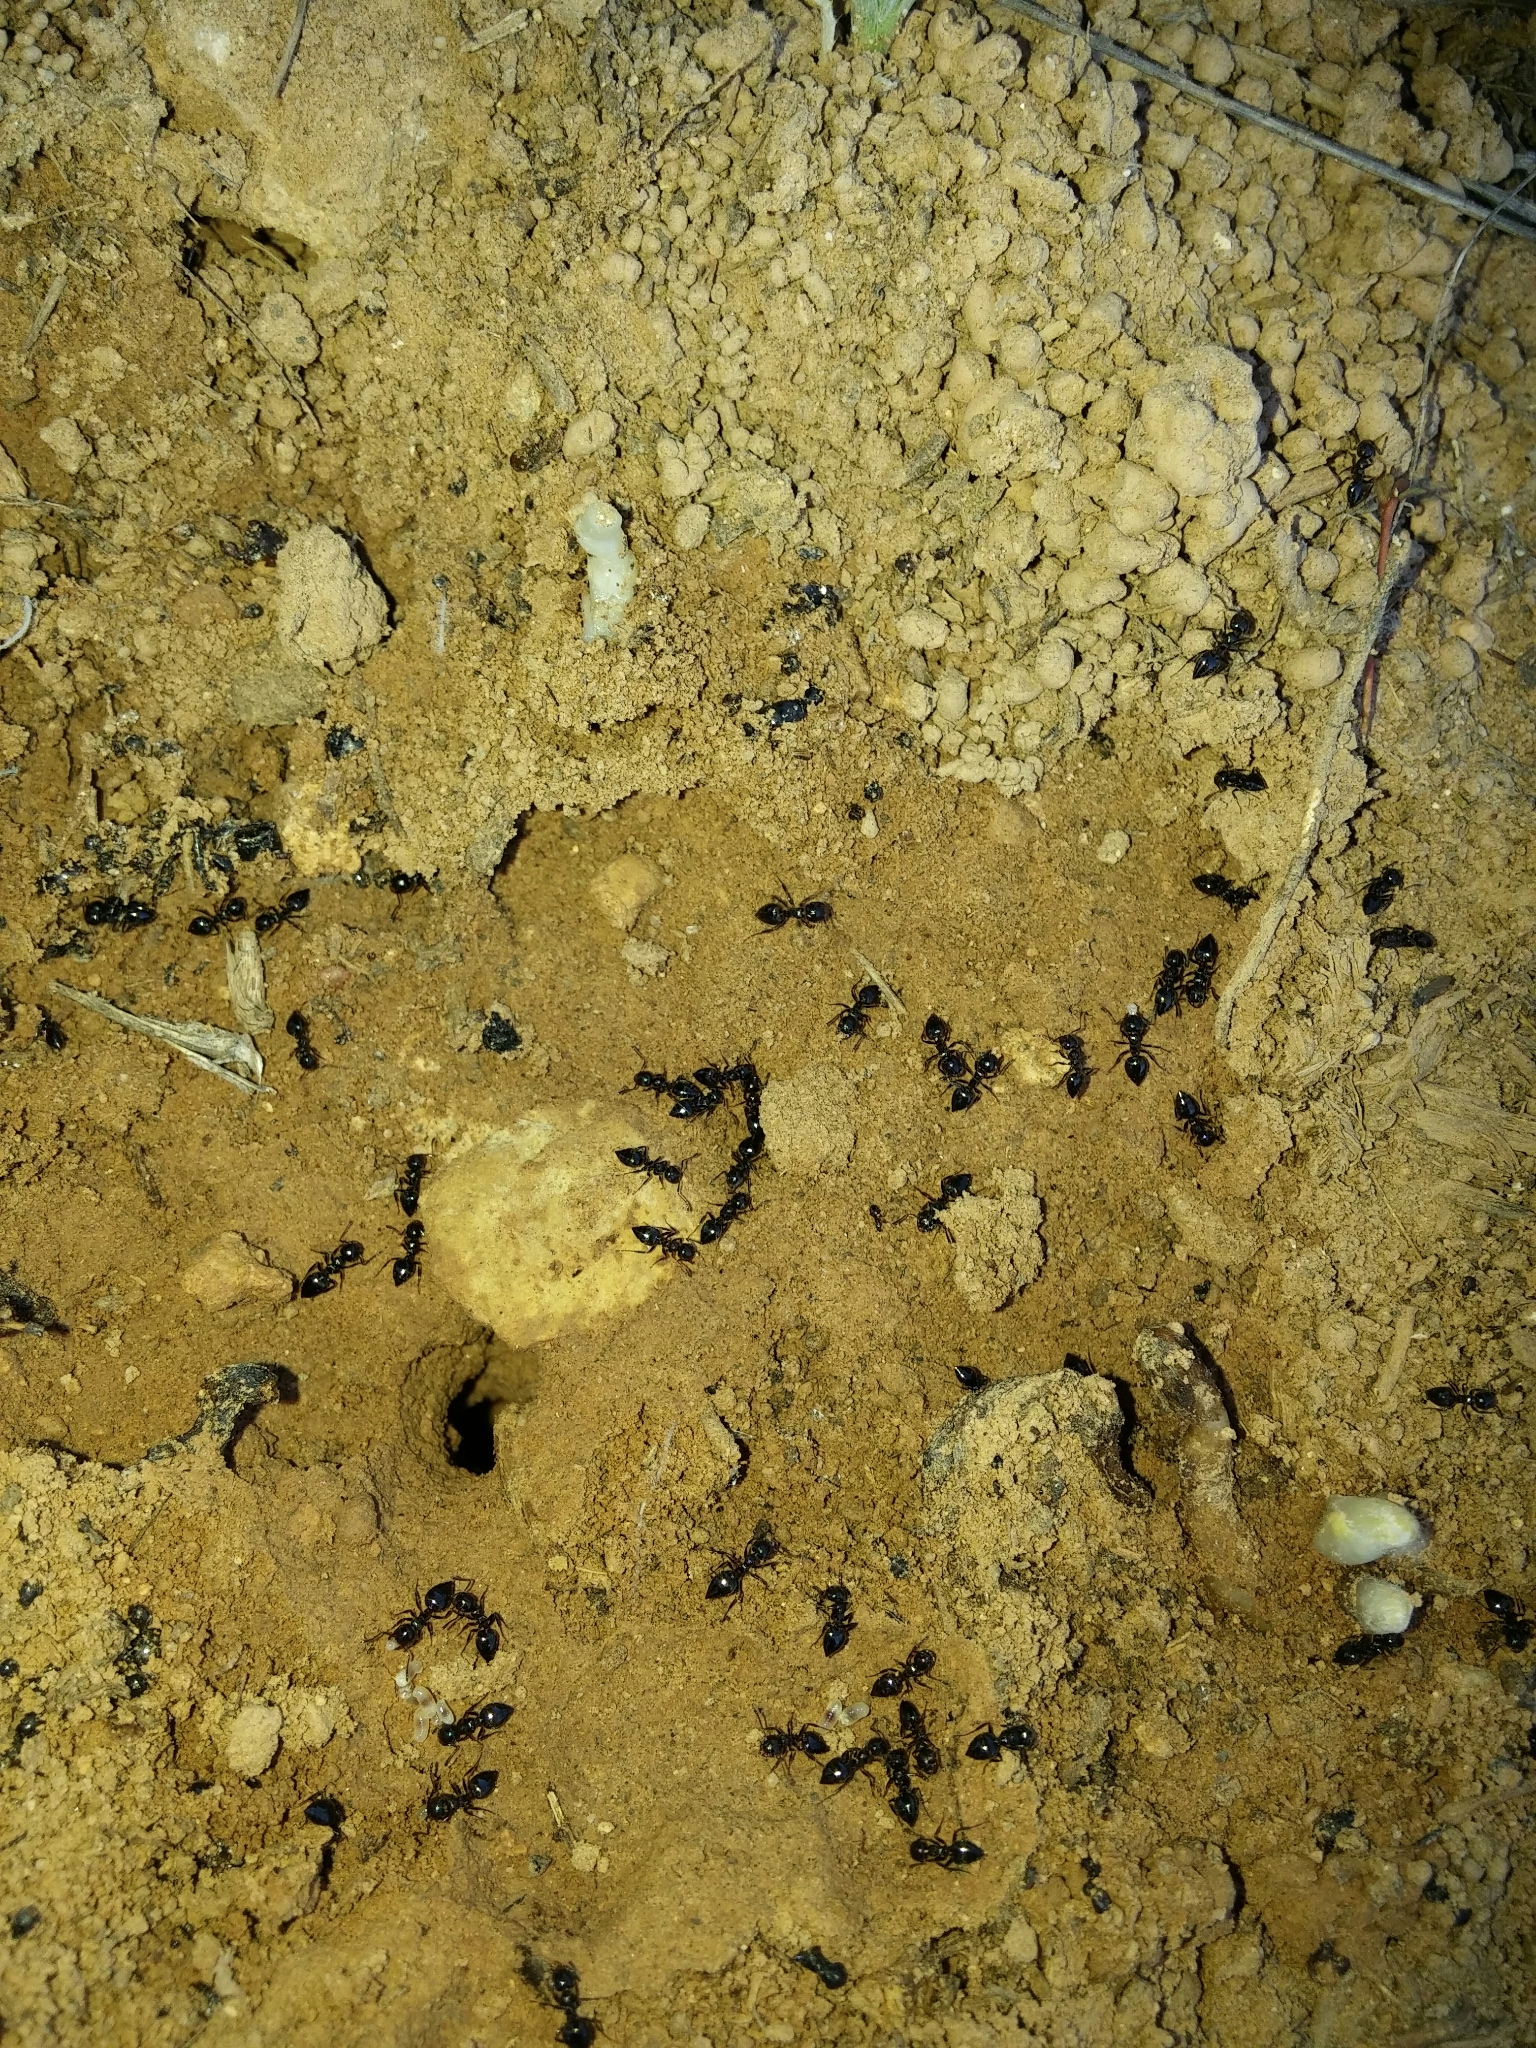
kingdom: Animalia
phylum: Arthropoda
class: Insecta
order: Hymenoptera
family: Formicidae
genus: Crematogaster
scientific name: Crematogaster auberti
